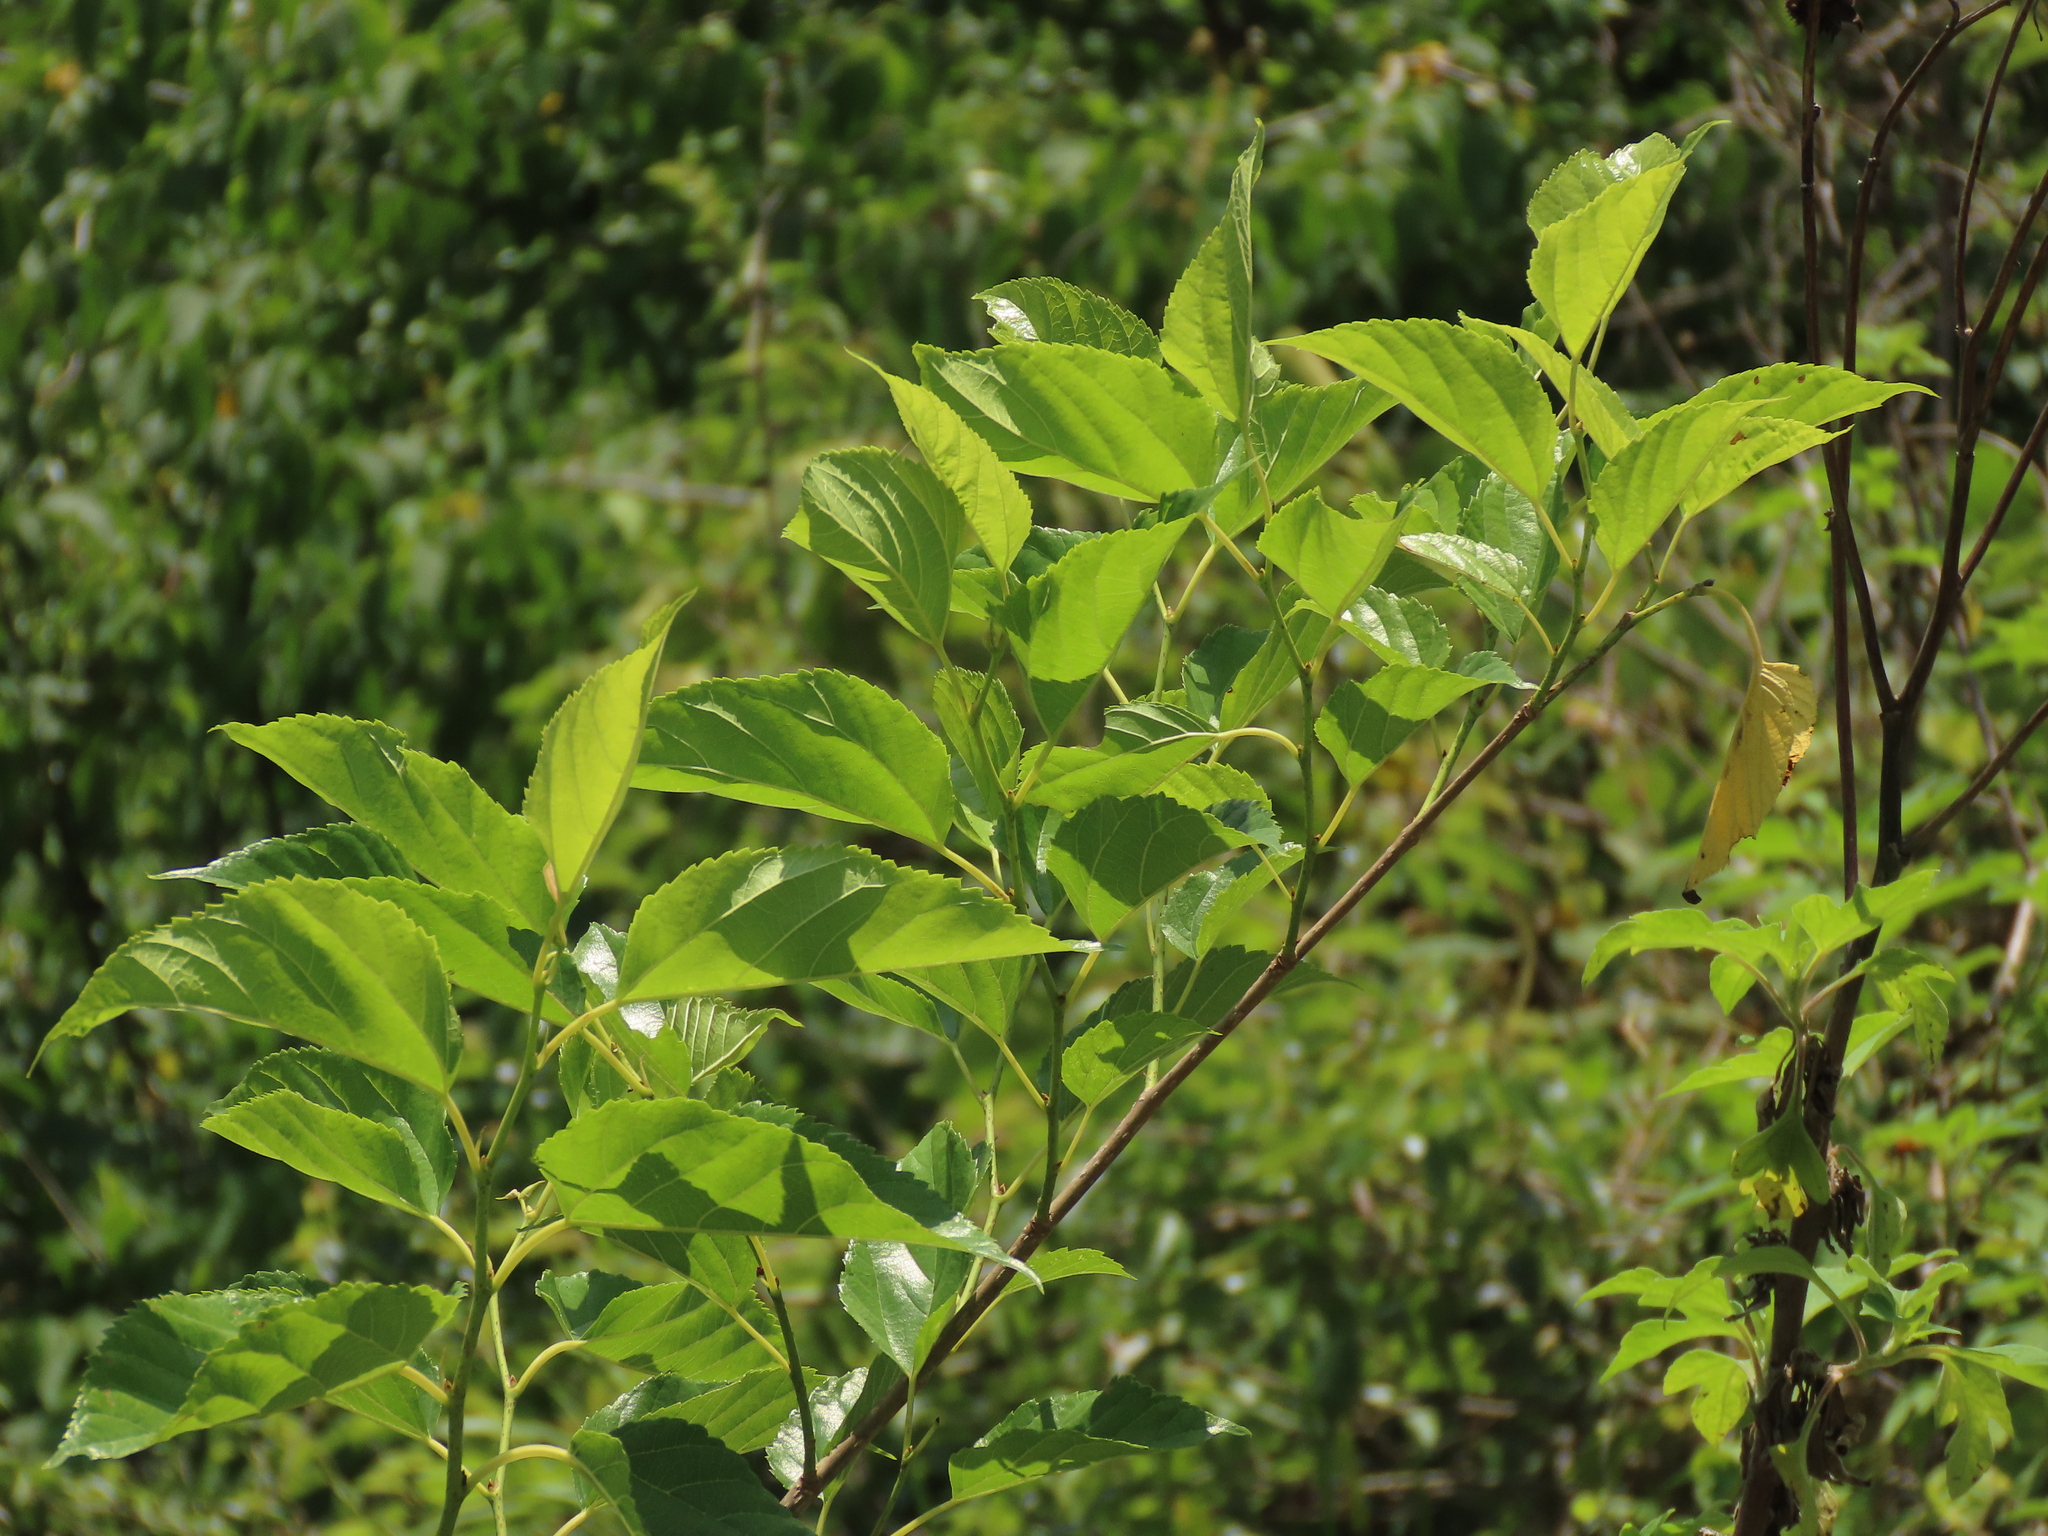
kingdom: Plantae
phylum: Tracheophyta
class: Magnoliopsida
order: Rosales
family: Moraceae
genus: Morus
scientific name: Morus indica
